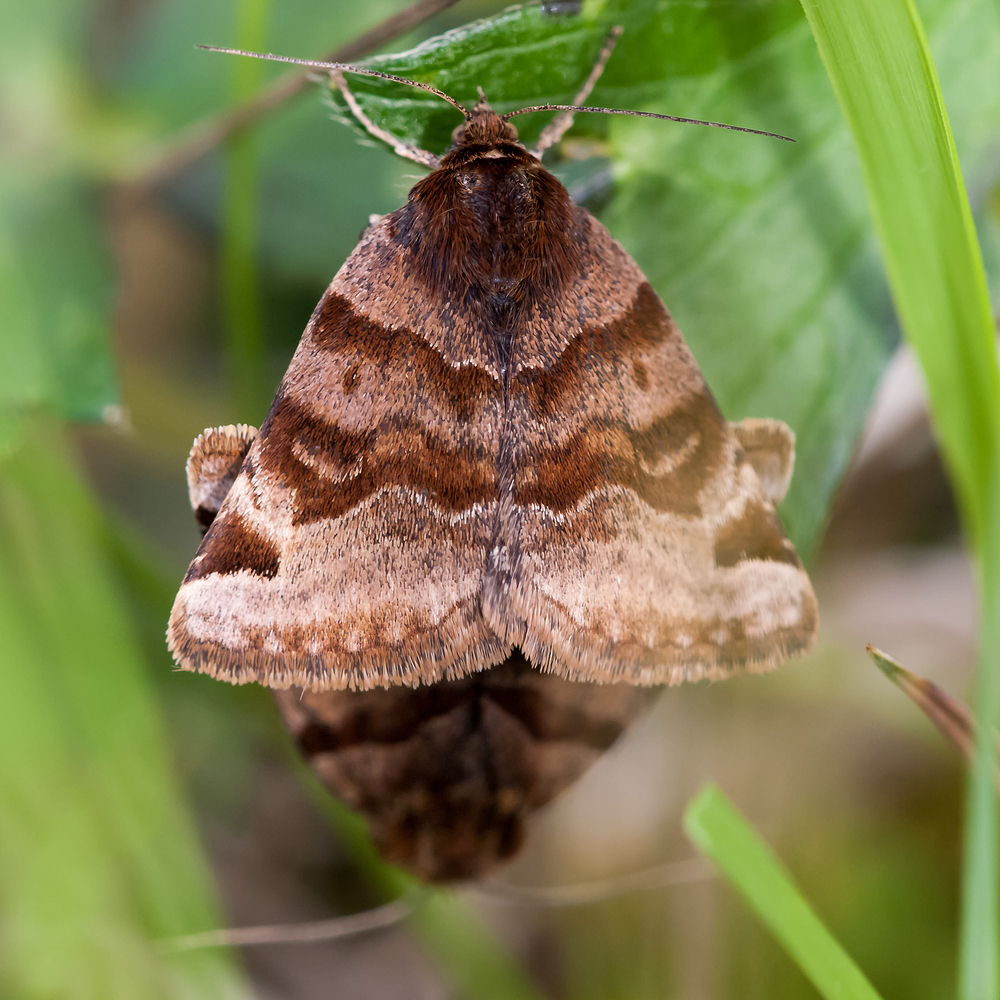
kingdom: Animalia
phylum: Arthropoda
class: Insecta
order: Lepidoptera
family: Erebidae
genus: Euclidia
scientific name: Euclidia glyphica
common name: Burnet companion
